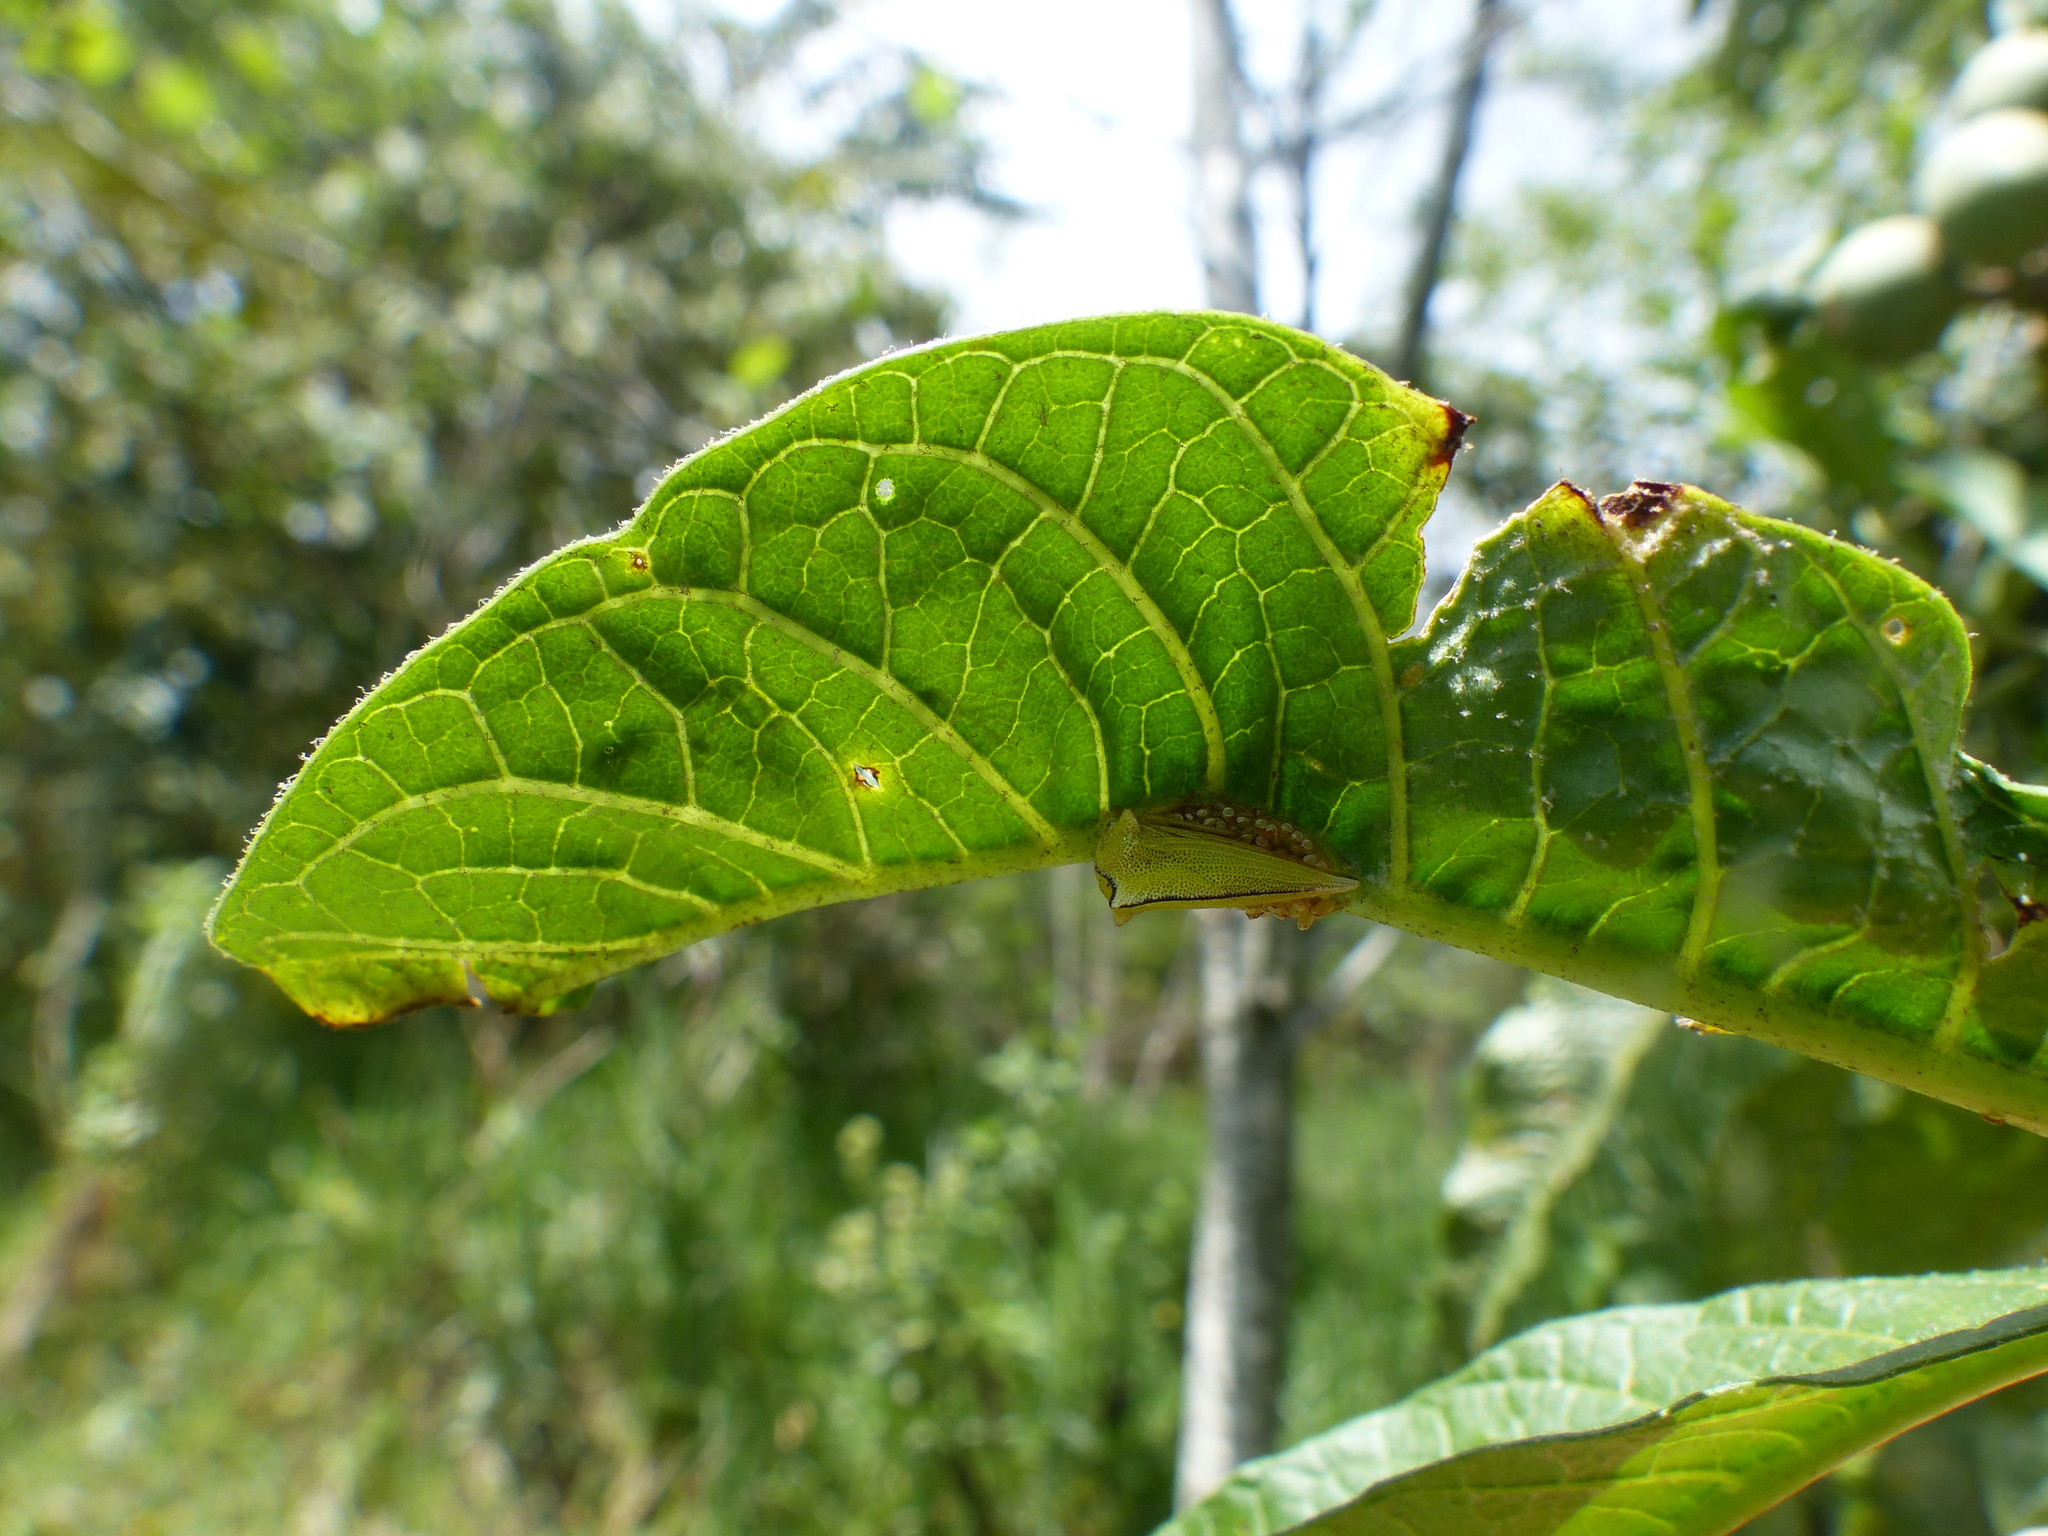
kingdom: Animalia
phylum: Arthropoda
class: Insecta
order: Hemiptera
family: Membracidae
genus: Ennya
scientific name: Ennya sobria
